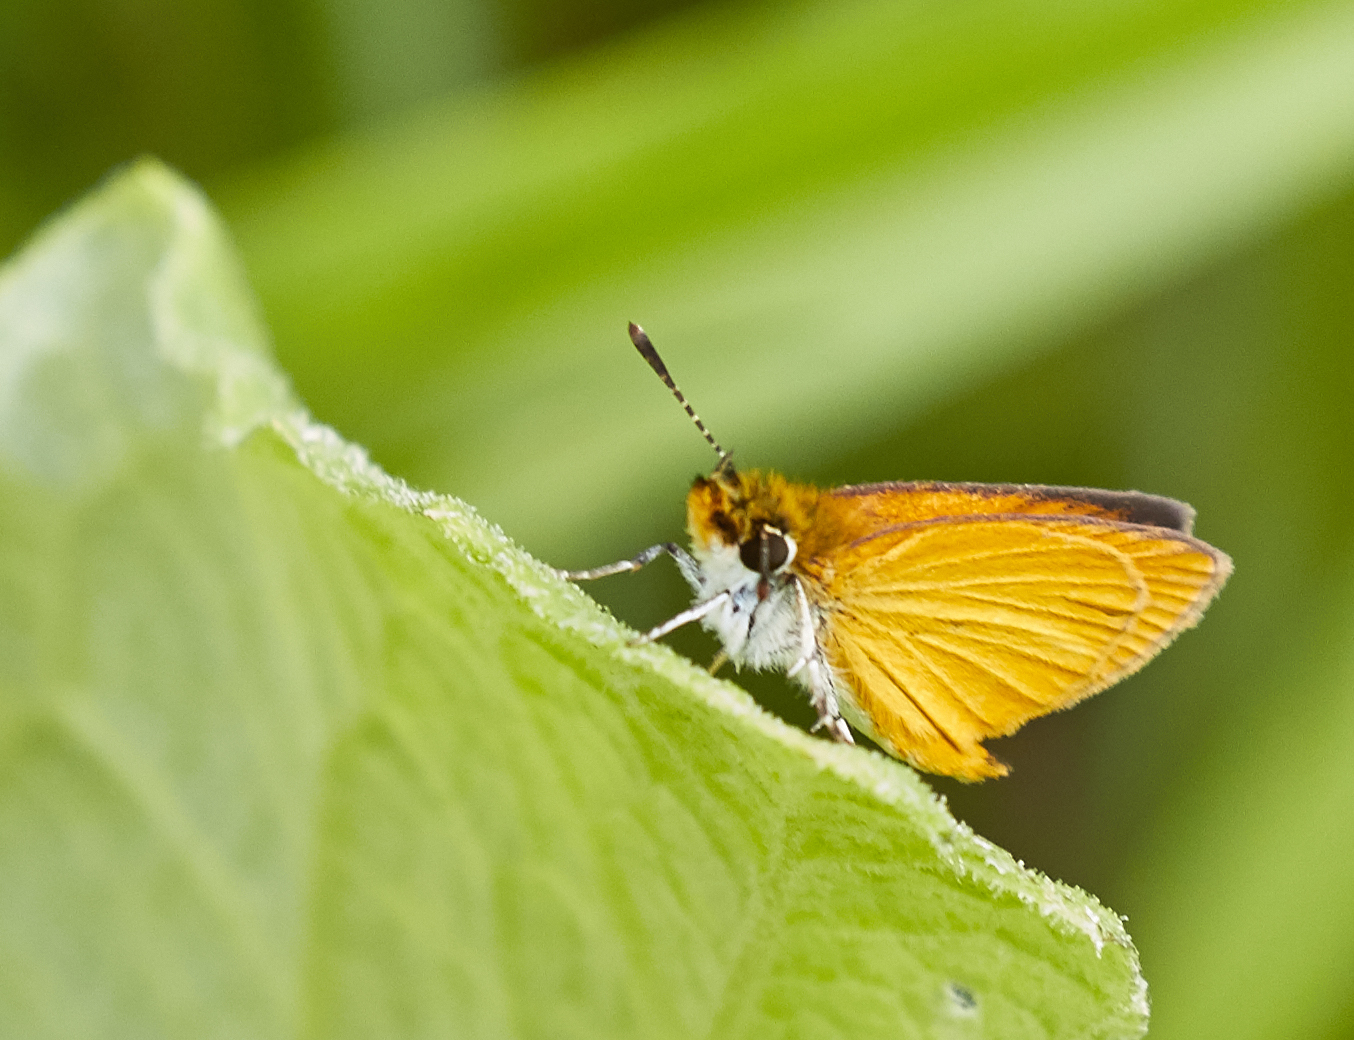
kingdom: Animalia
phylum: Arthropoda
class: Insecta
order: Lepidoptera
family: Hesperiidae
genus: Ancyloxypha
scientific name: Ancyloxypha numitor
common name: Least skipper
